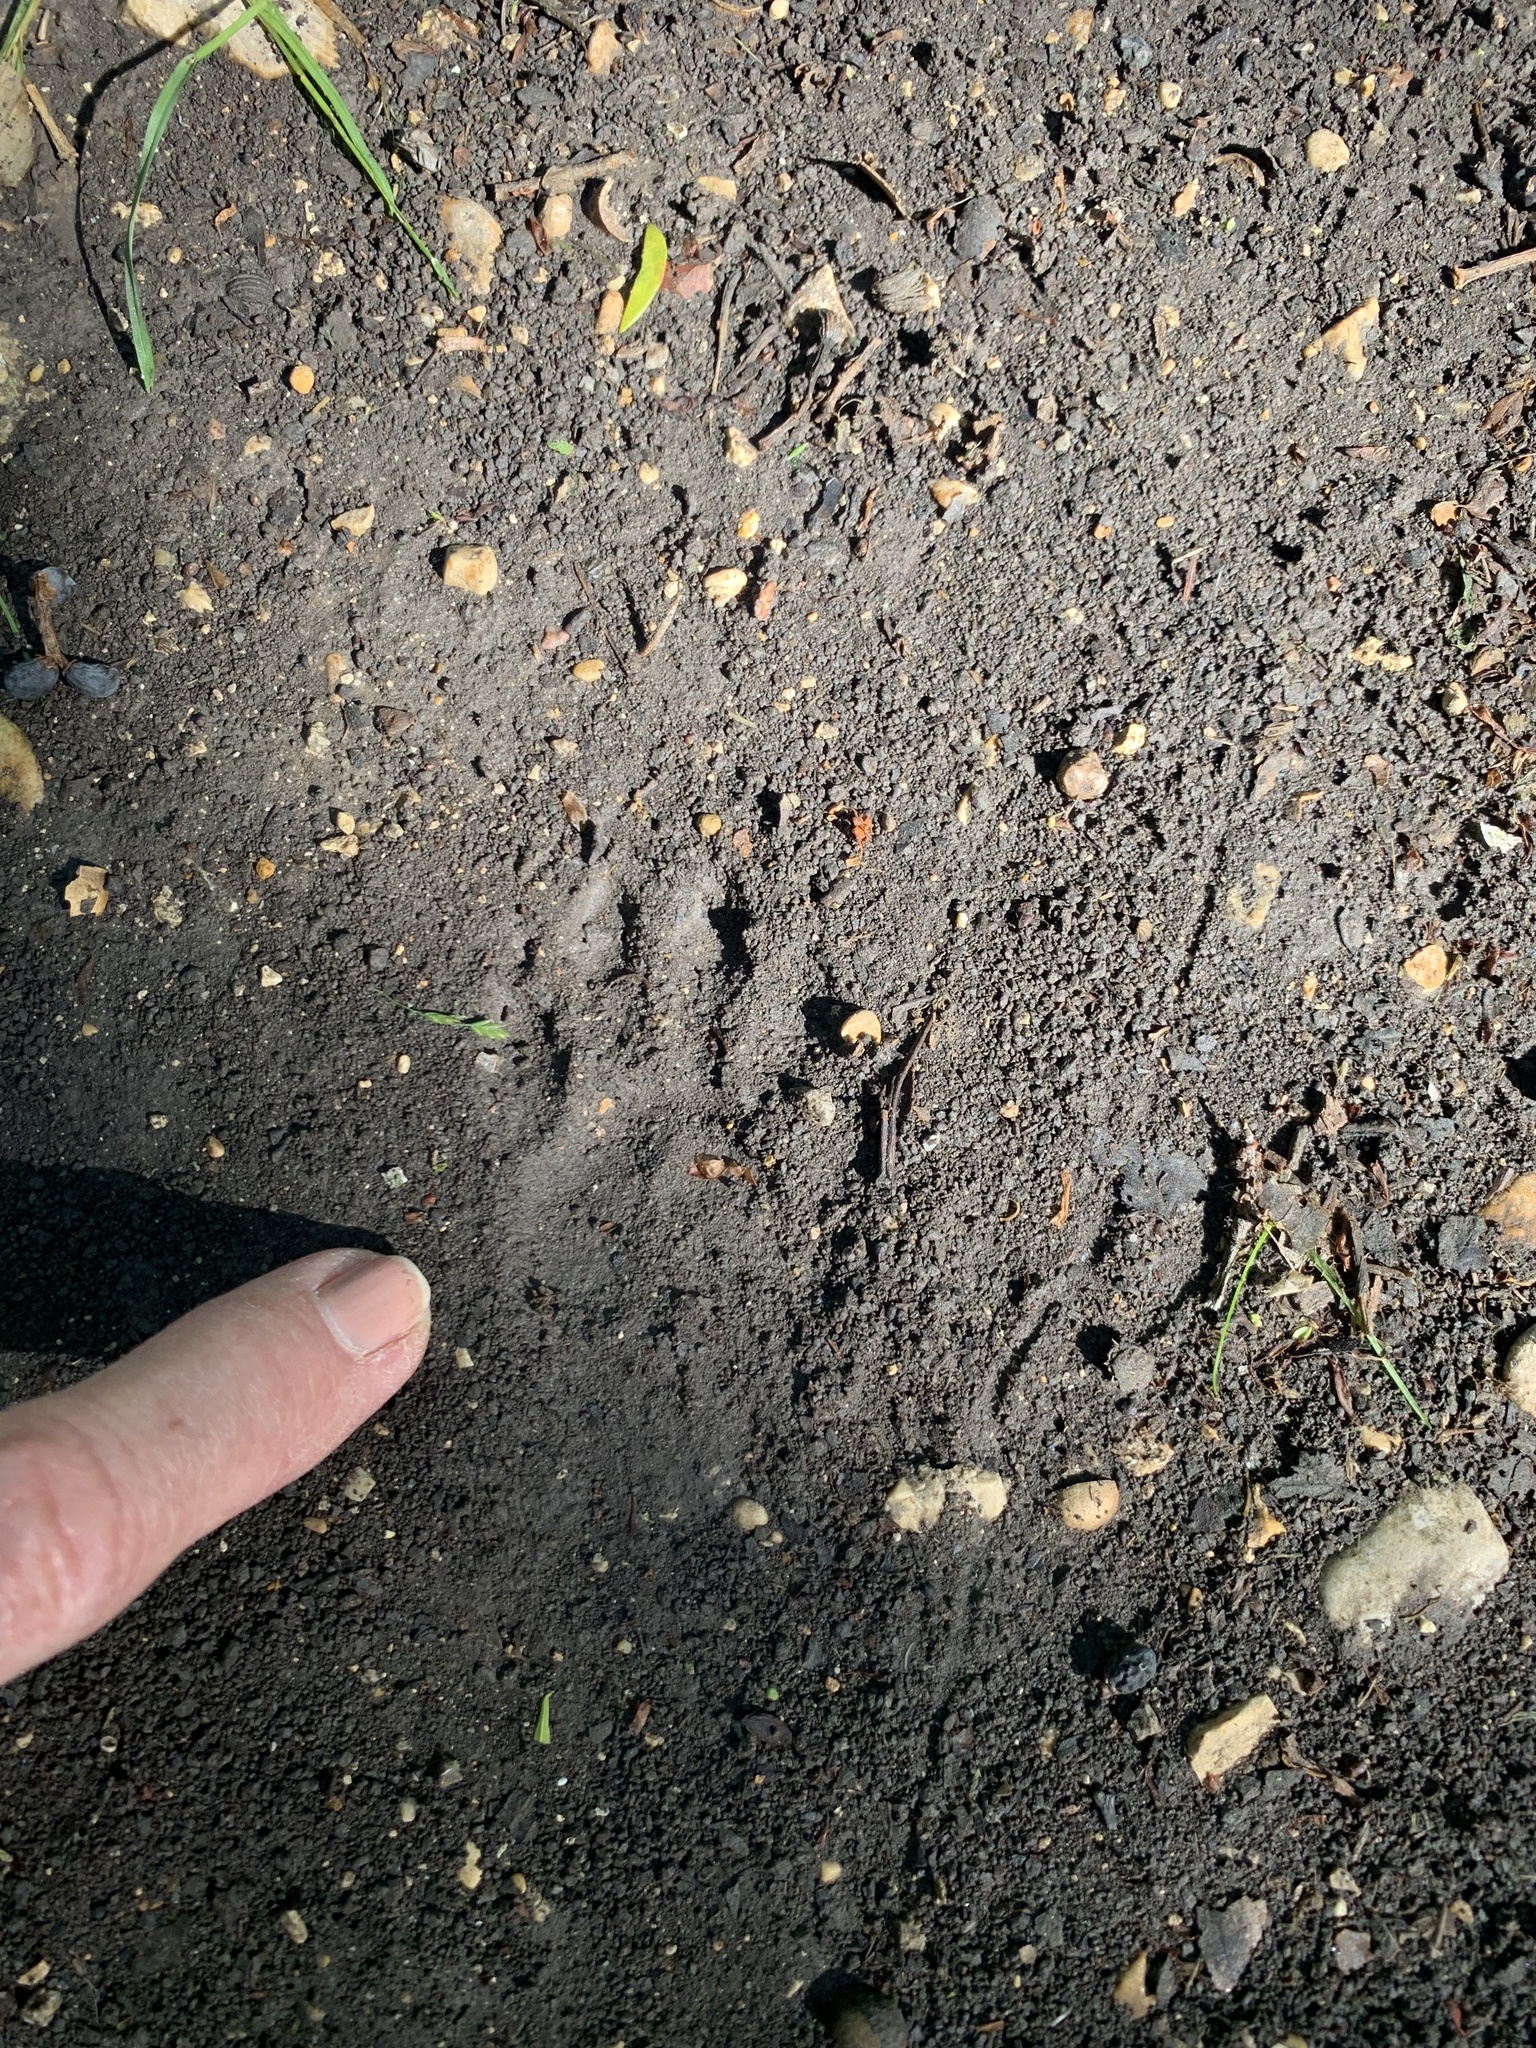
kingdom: Animalia
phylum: Chordata
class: Mammalia
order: Carnivora
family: Procyonidae
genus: Procyon
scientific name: Procyon lotor
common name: Raccoon
